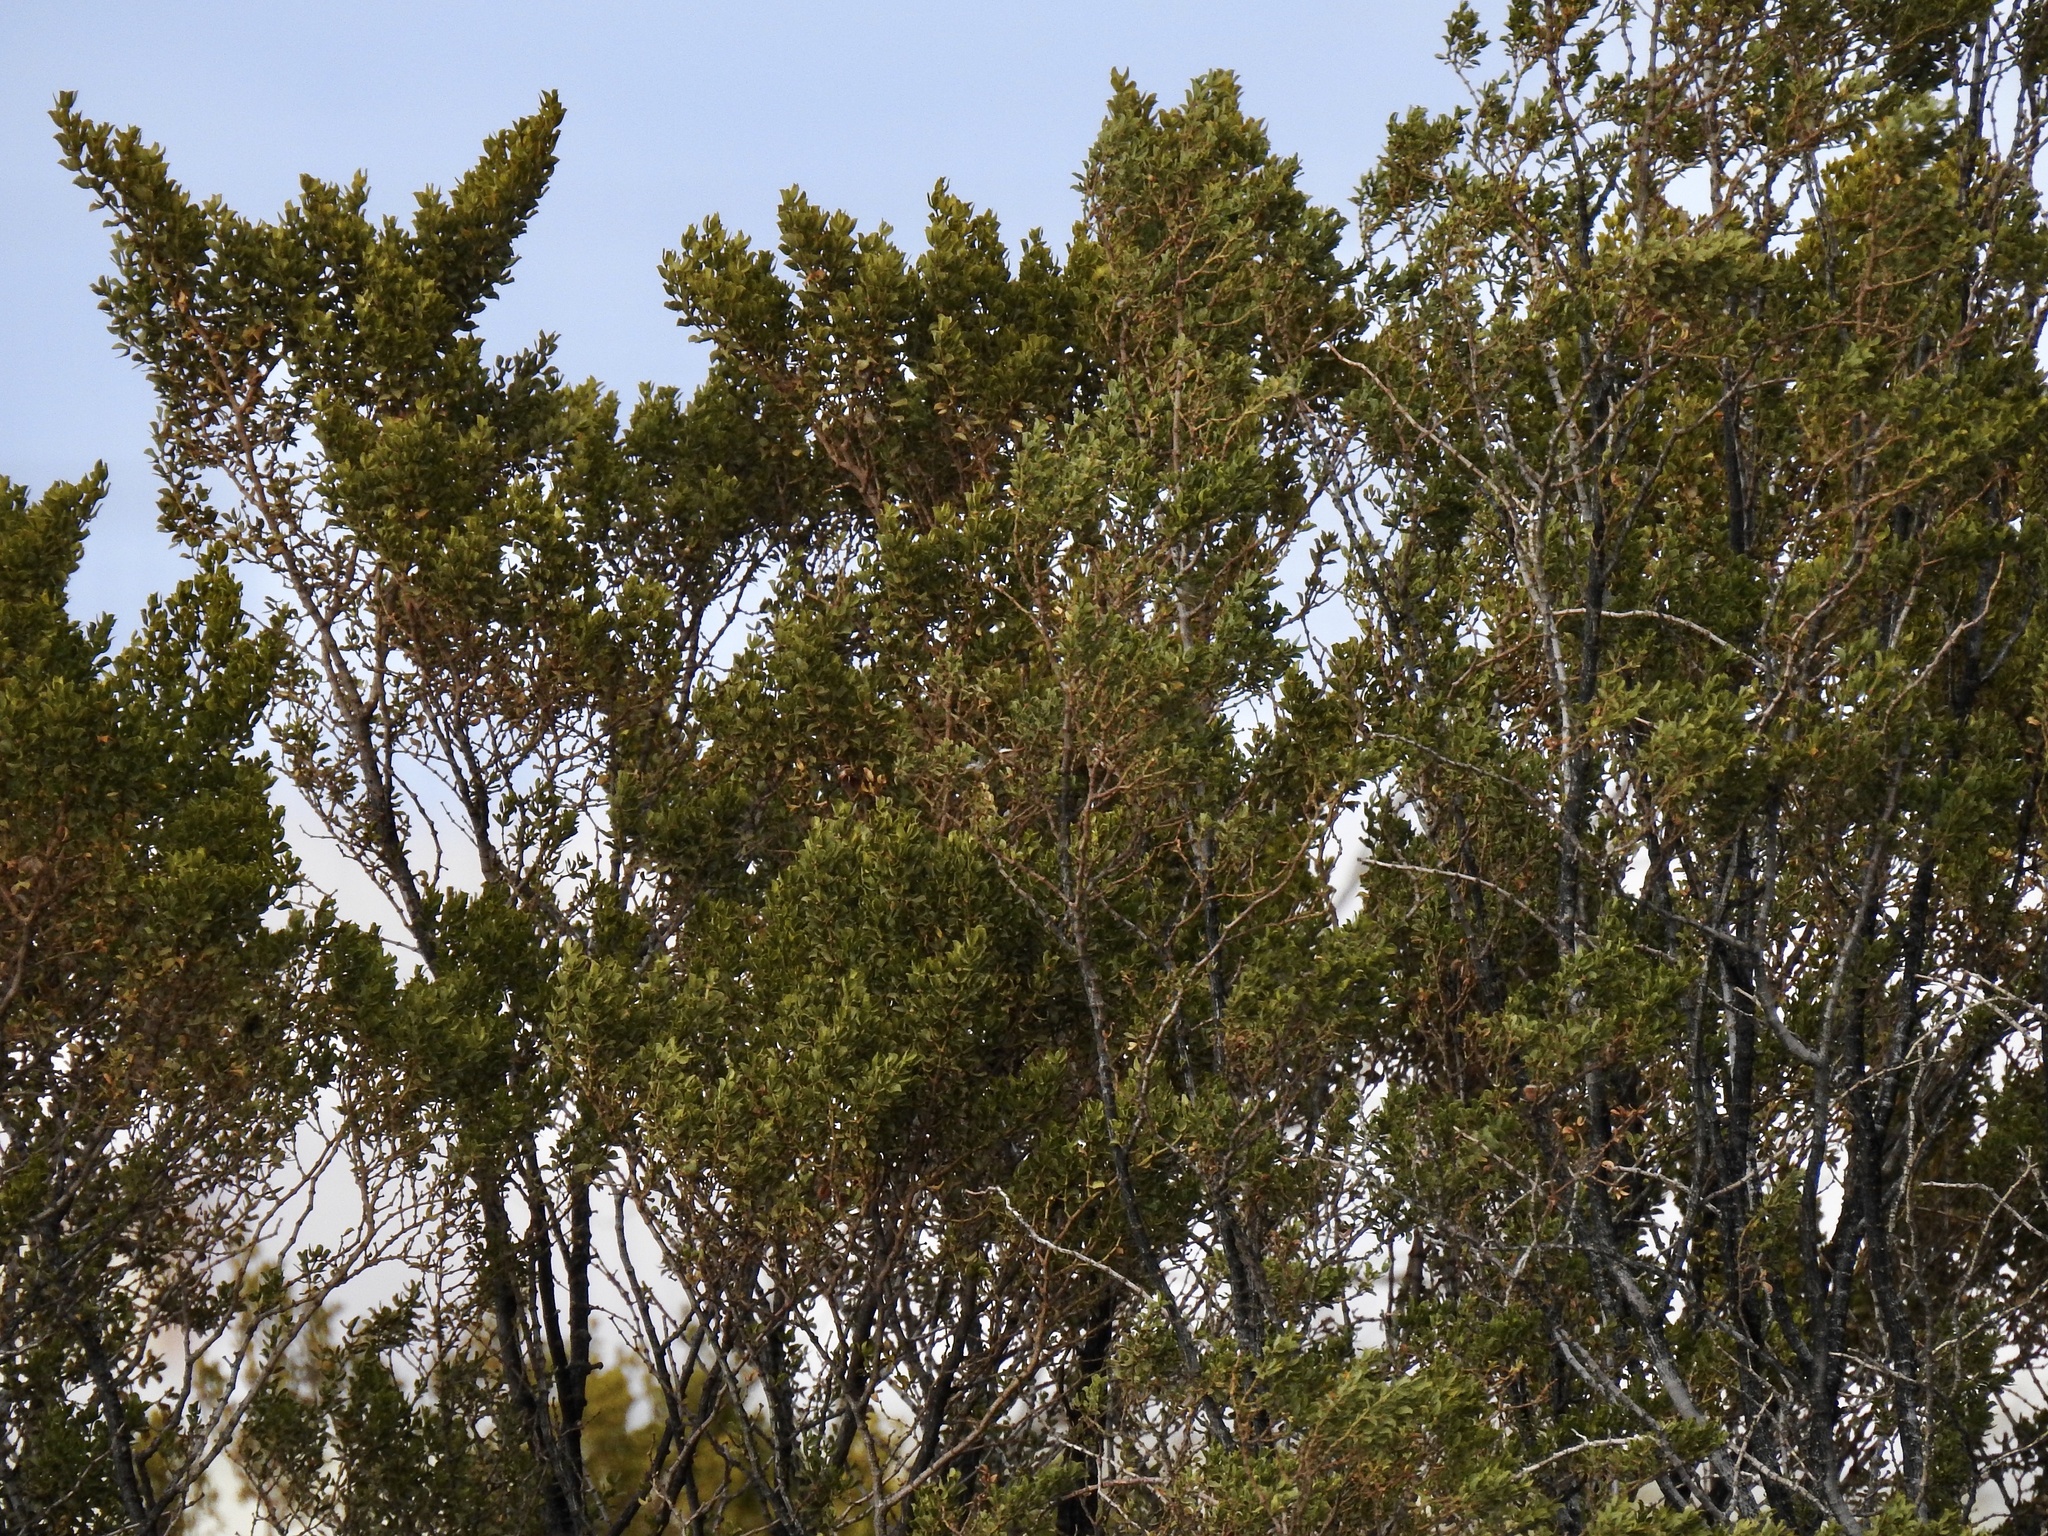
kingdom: Plantae
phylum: Tracheophyta
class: Magnoliopsida
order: Zygophyllales
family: Zygophyllaceae
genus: Larrea
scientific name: Larrea tridentata
